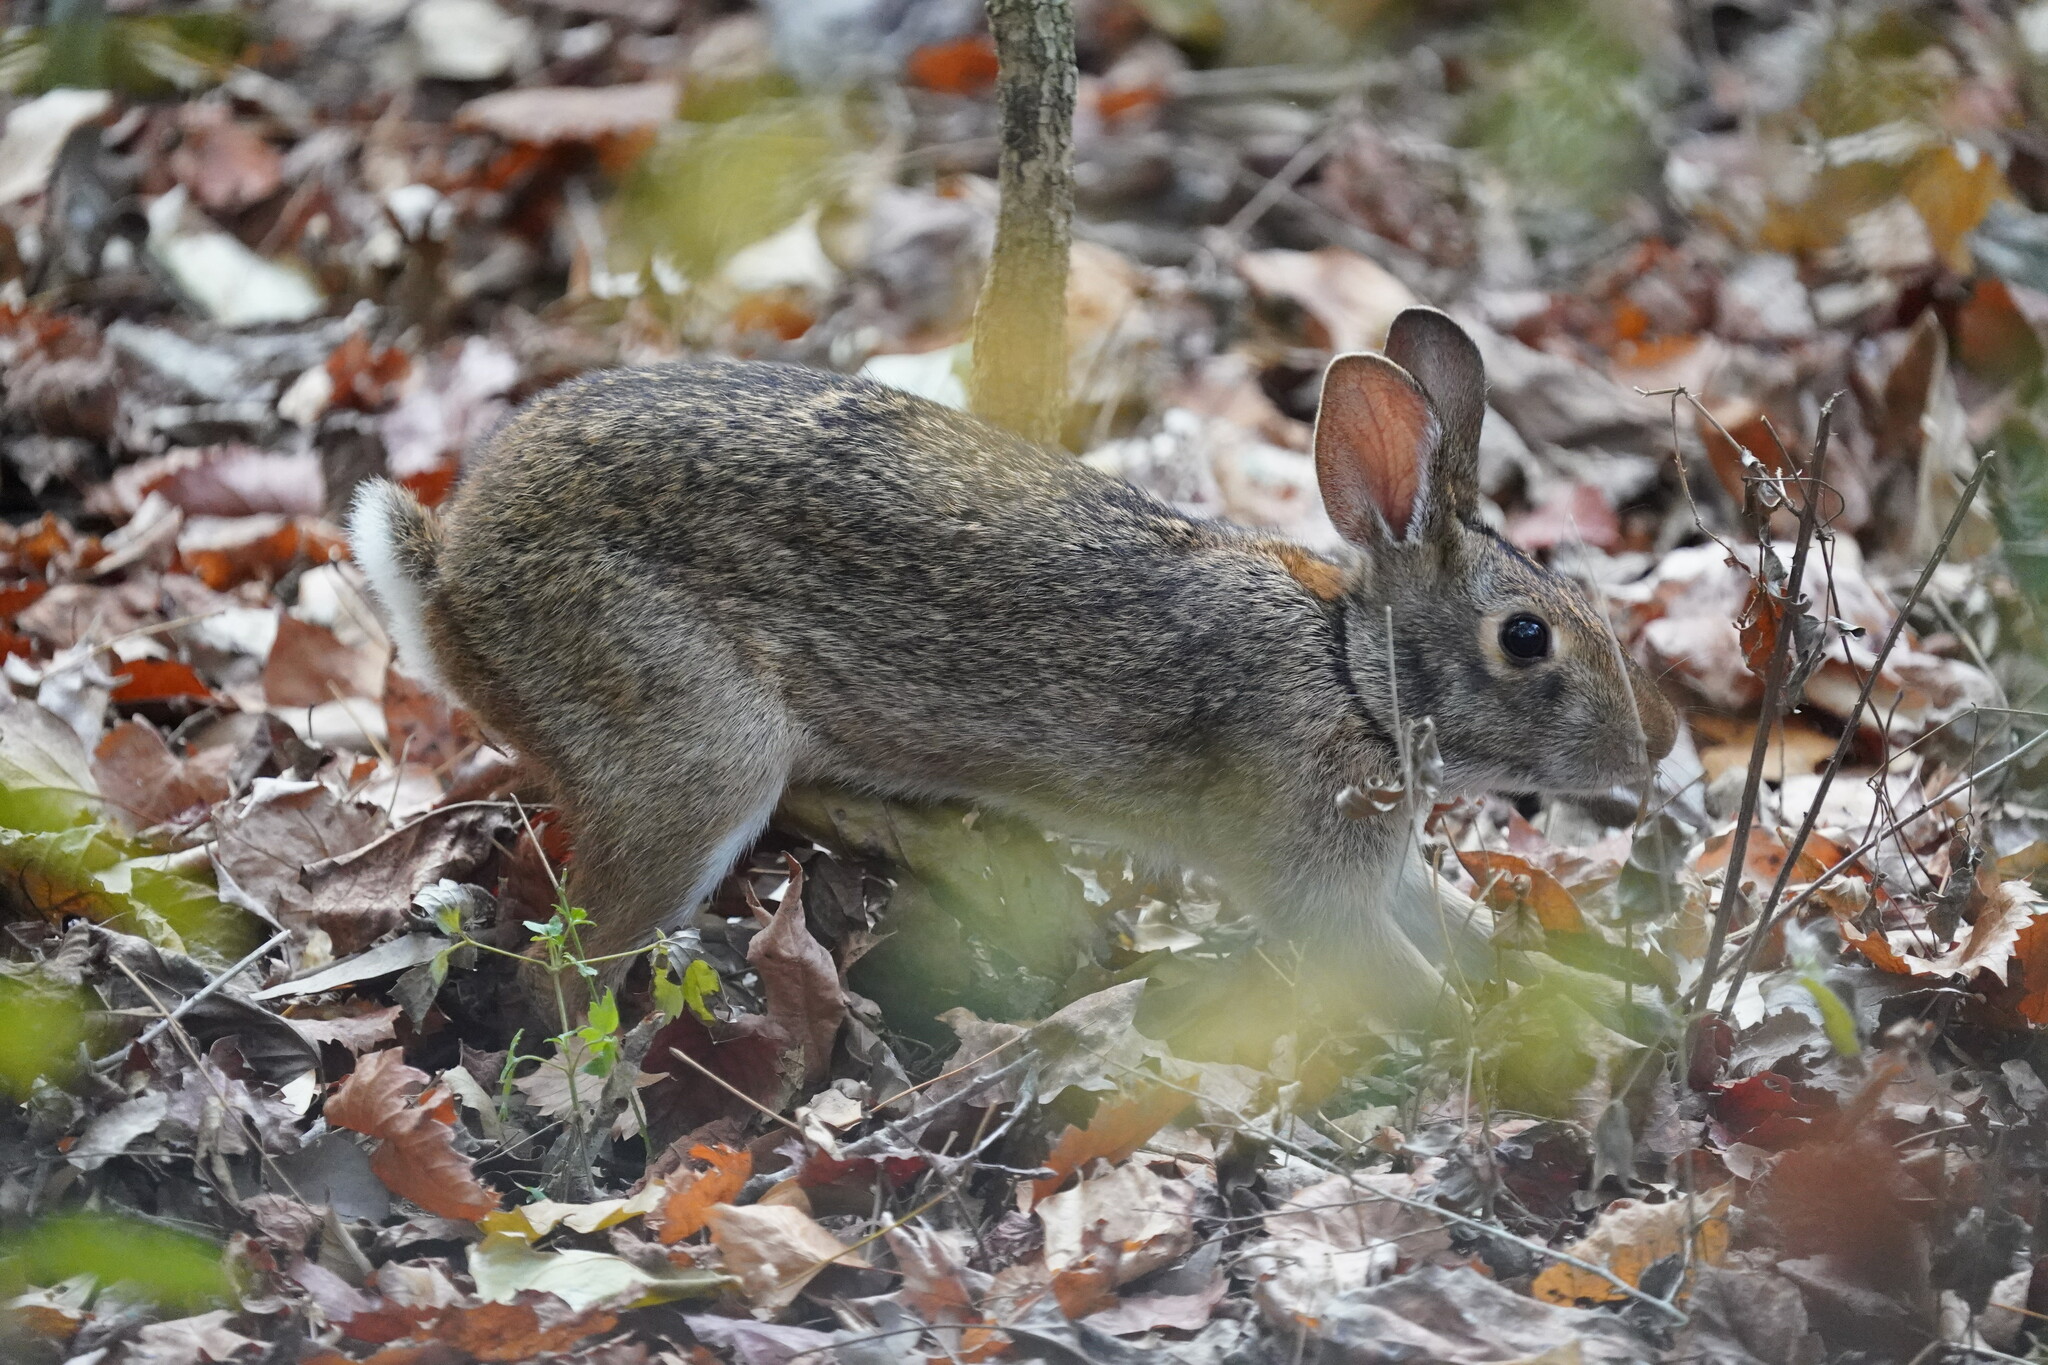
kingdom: Animalia
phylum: Chordata
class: Mammalia
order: Lagomorpha
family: Leporidae
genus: Sylvilagus
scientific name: Sylvilagus aquaticus
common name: Swamp rabbit
